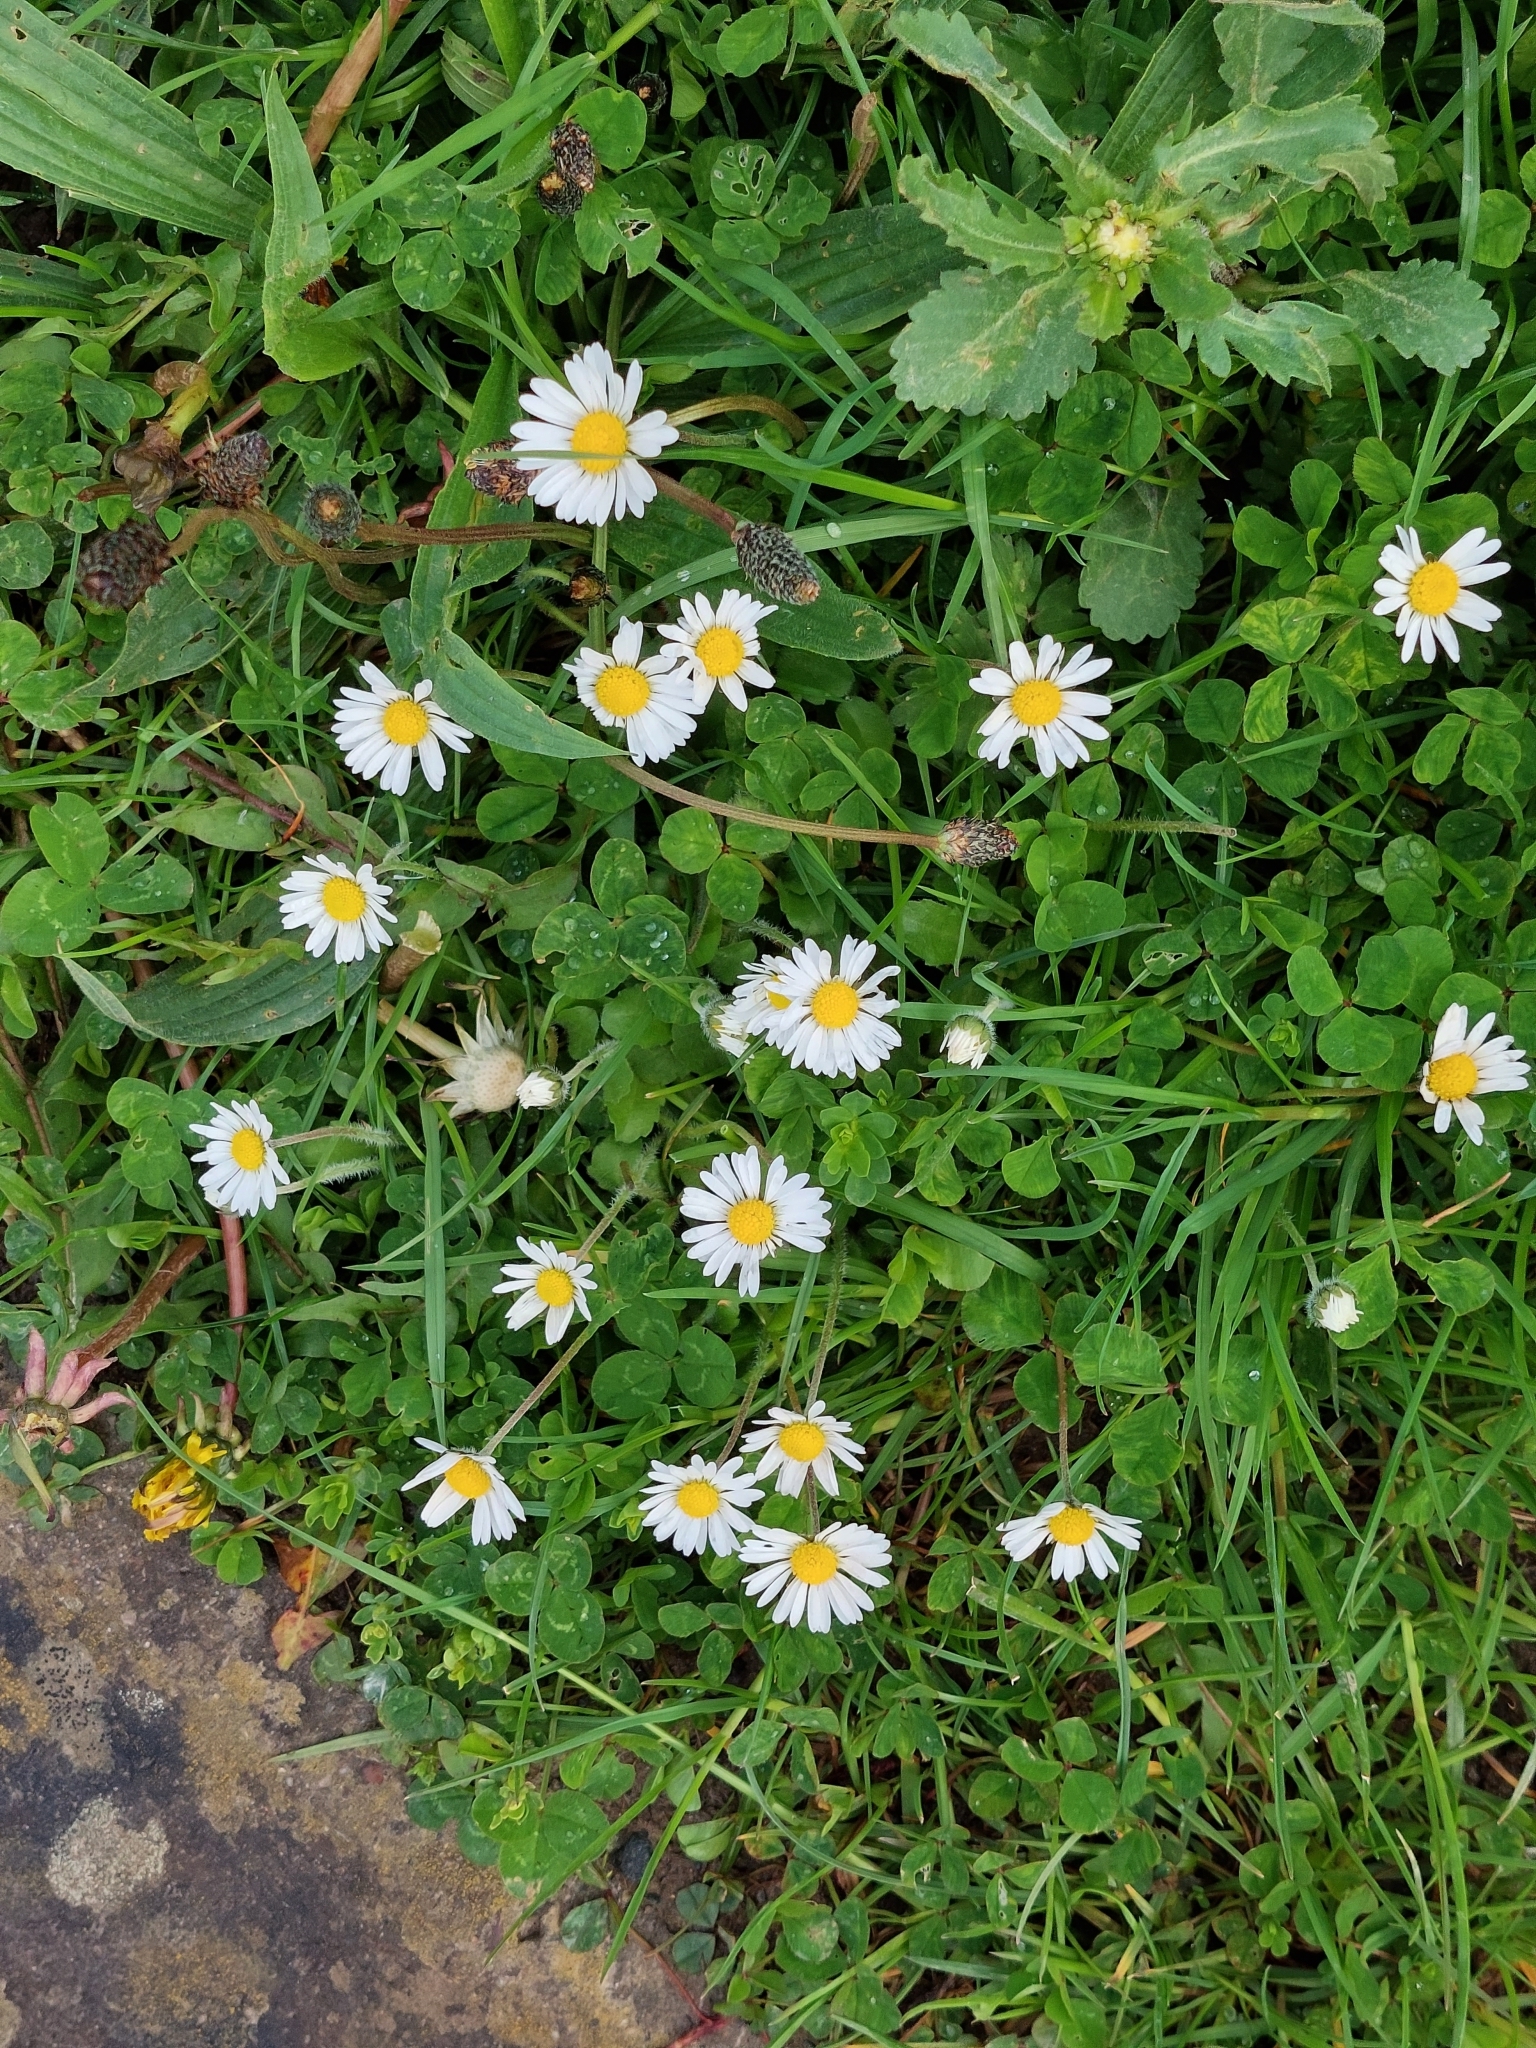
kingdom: Plantae
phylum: Tracheophyta
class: Magnoliopsida
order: Asterales
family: Asteraceae
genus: Bellis
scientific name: Bellis perennis
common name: Lawndaisy
